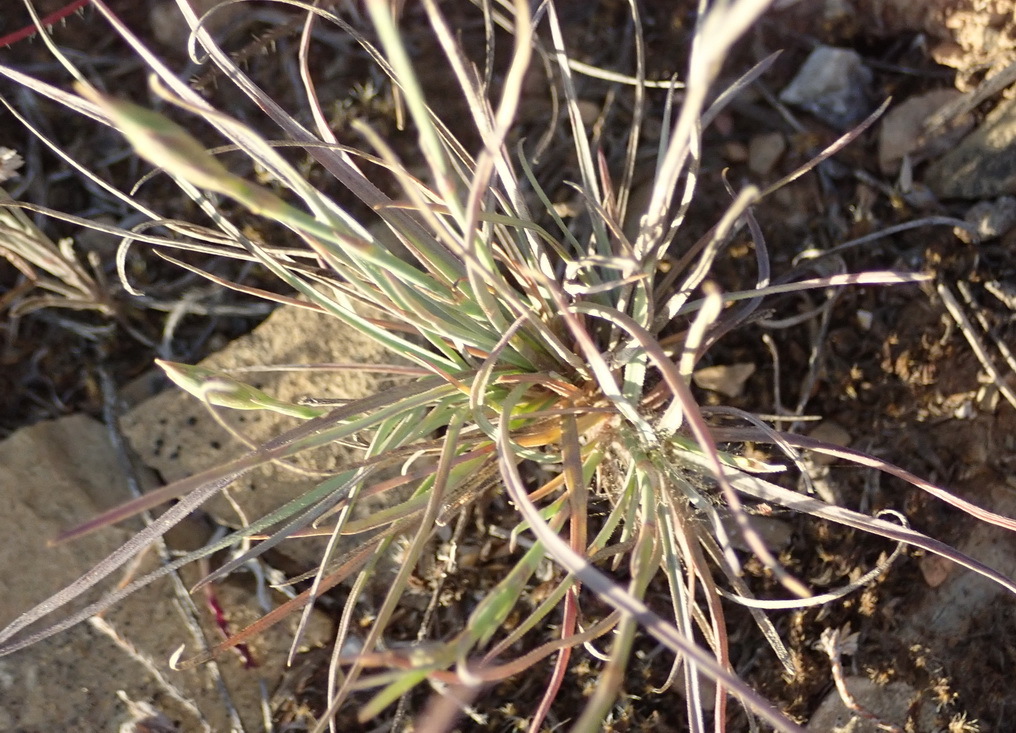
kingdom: Plantae
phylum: Tracheophyta
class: Magnoliopsida
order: Caryophyllales
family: Caryophyllaceae
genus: Dianthus
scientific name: Dianthus basuticus
